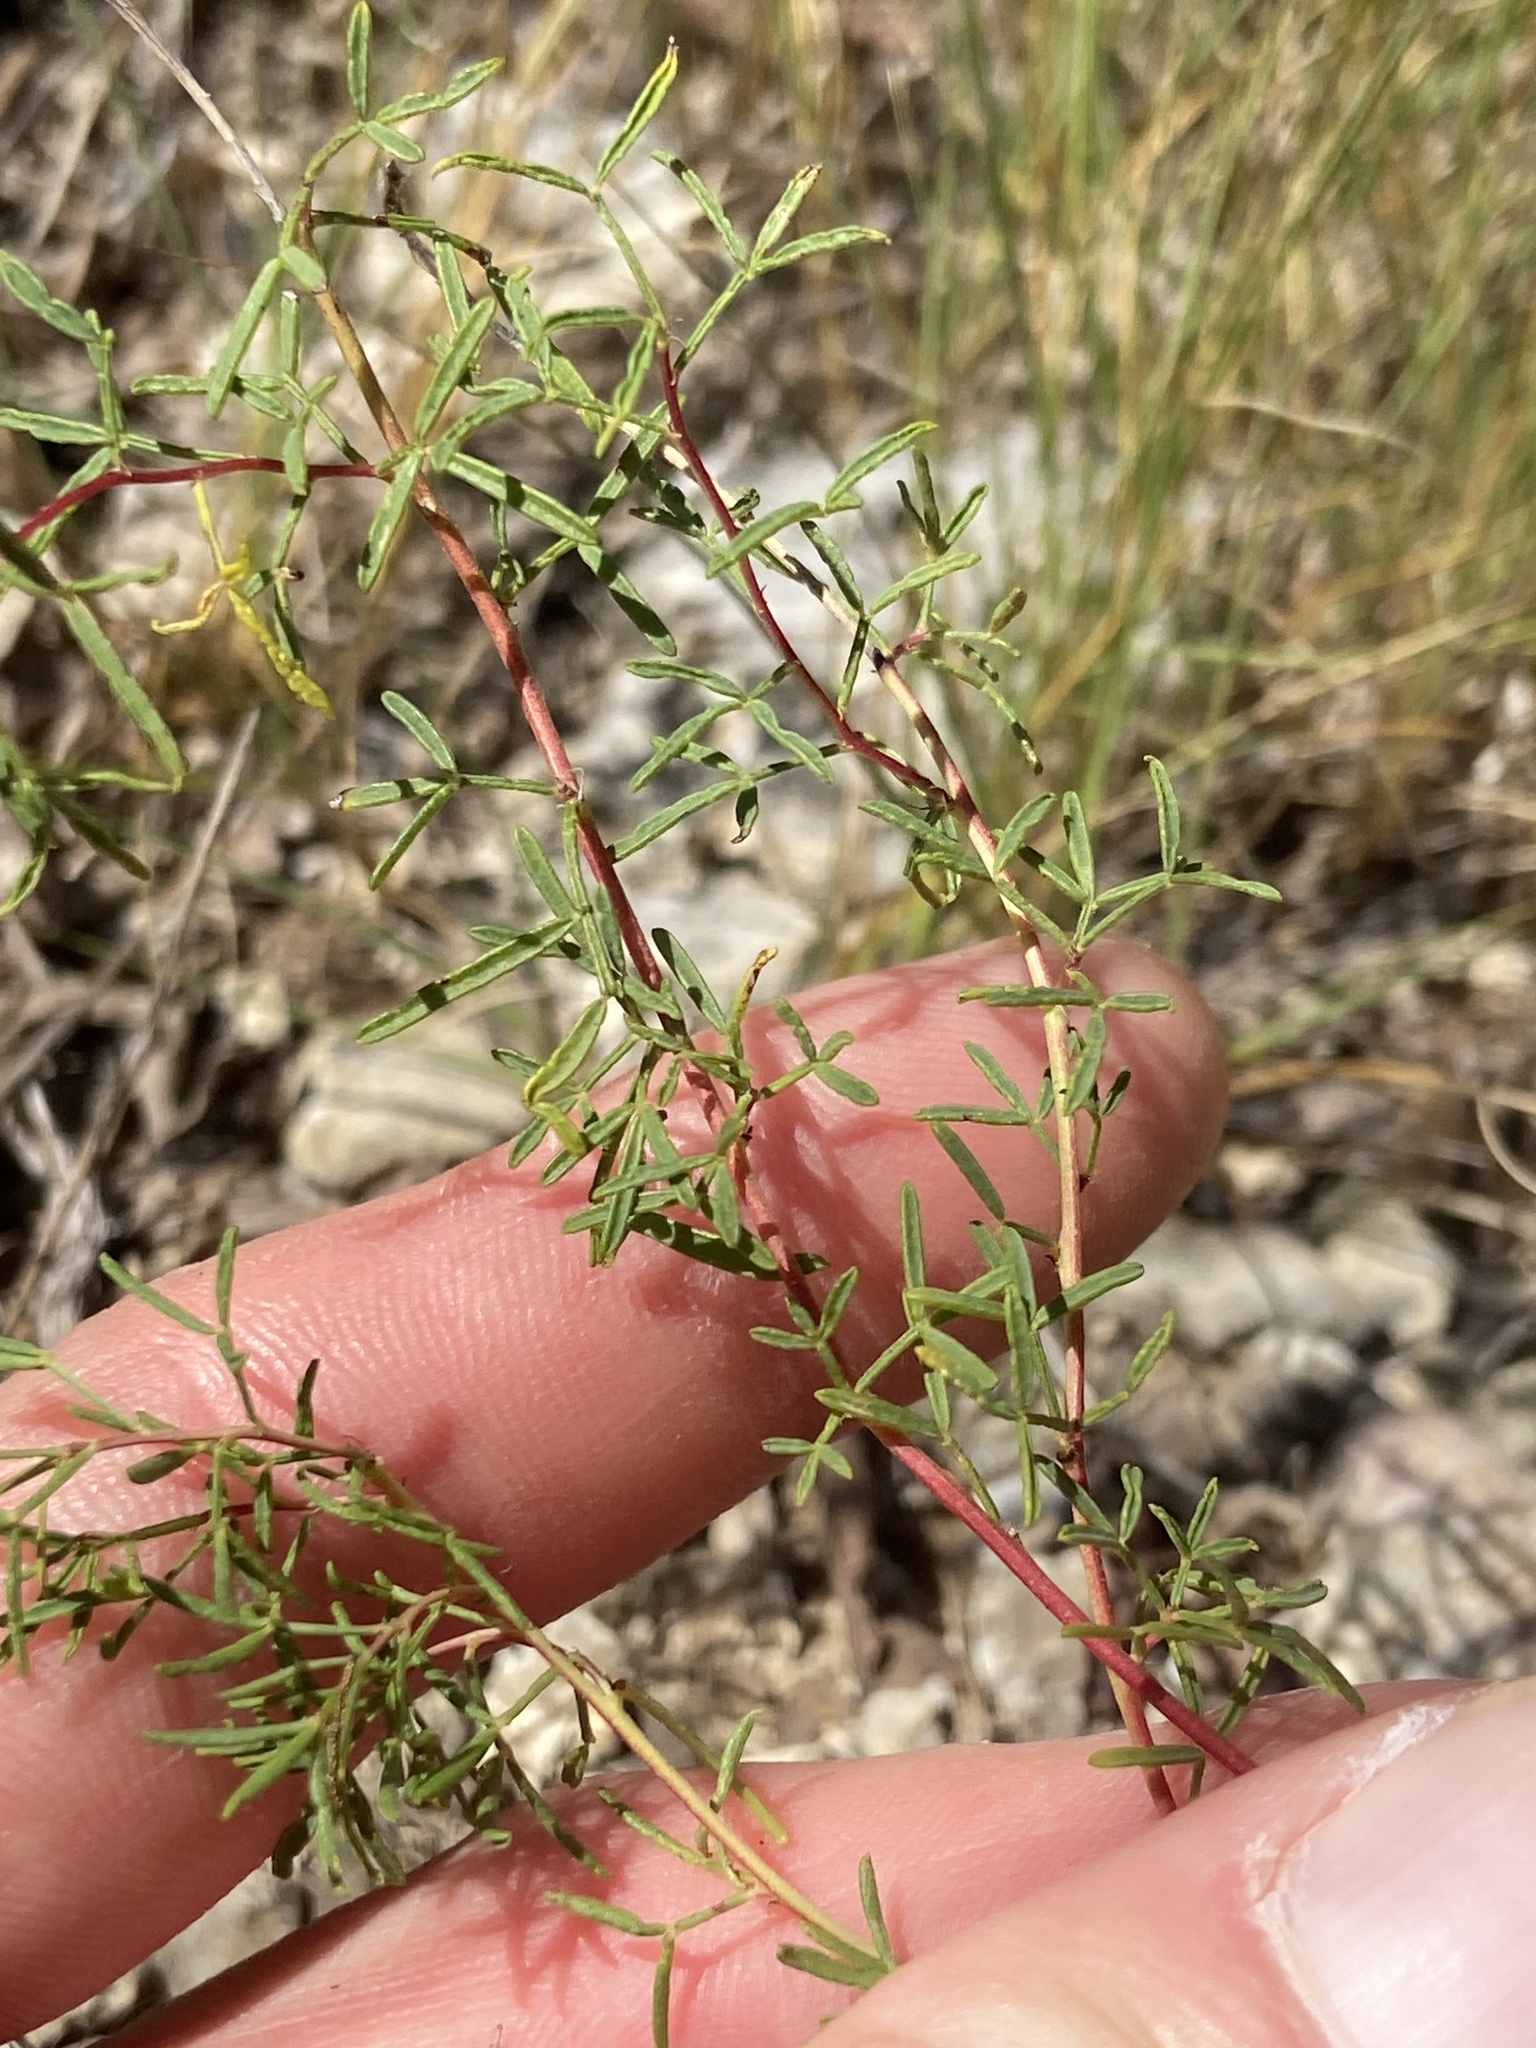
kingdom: Plantae
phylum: Tracheophyta
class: Magnoliopsida
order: Fabales
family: Fabaceae
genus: Dalea
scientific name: Dalea gattingeri
